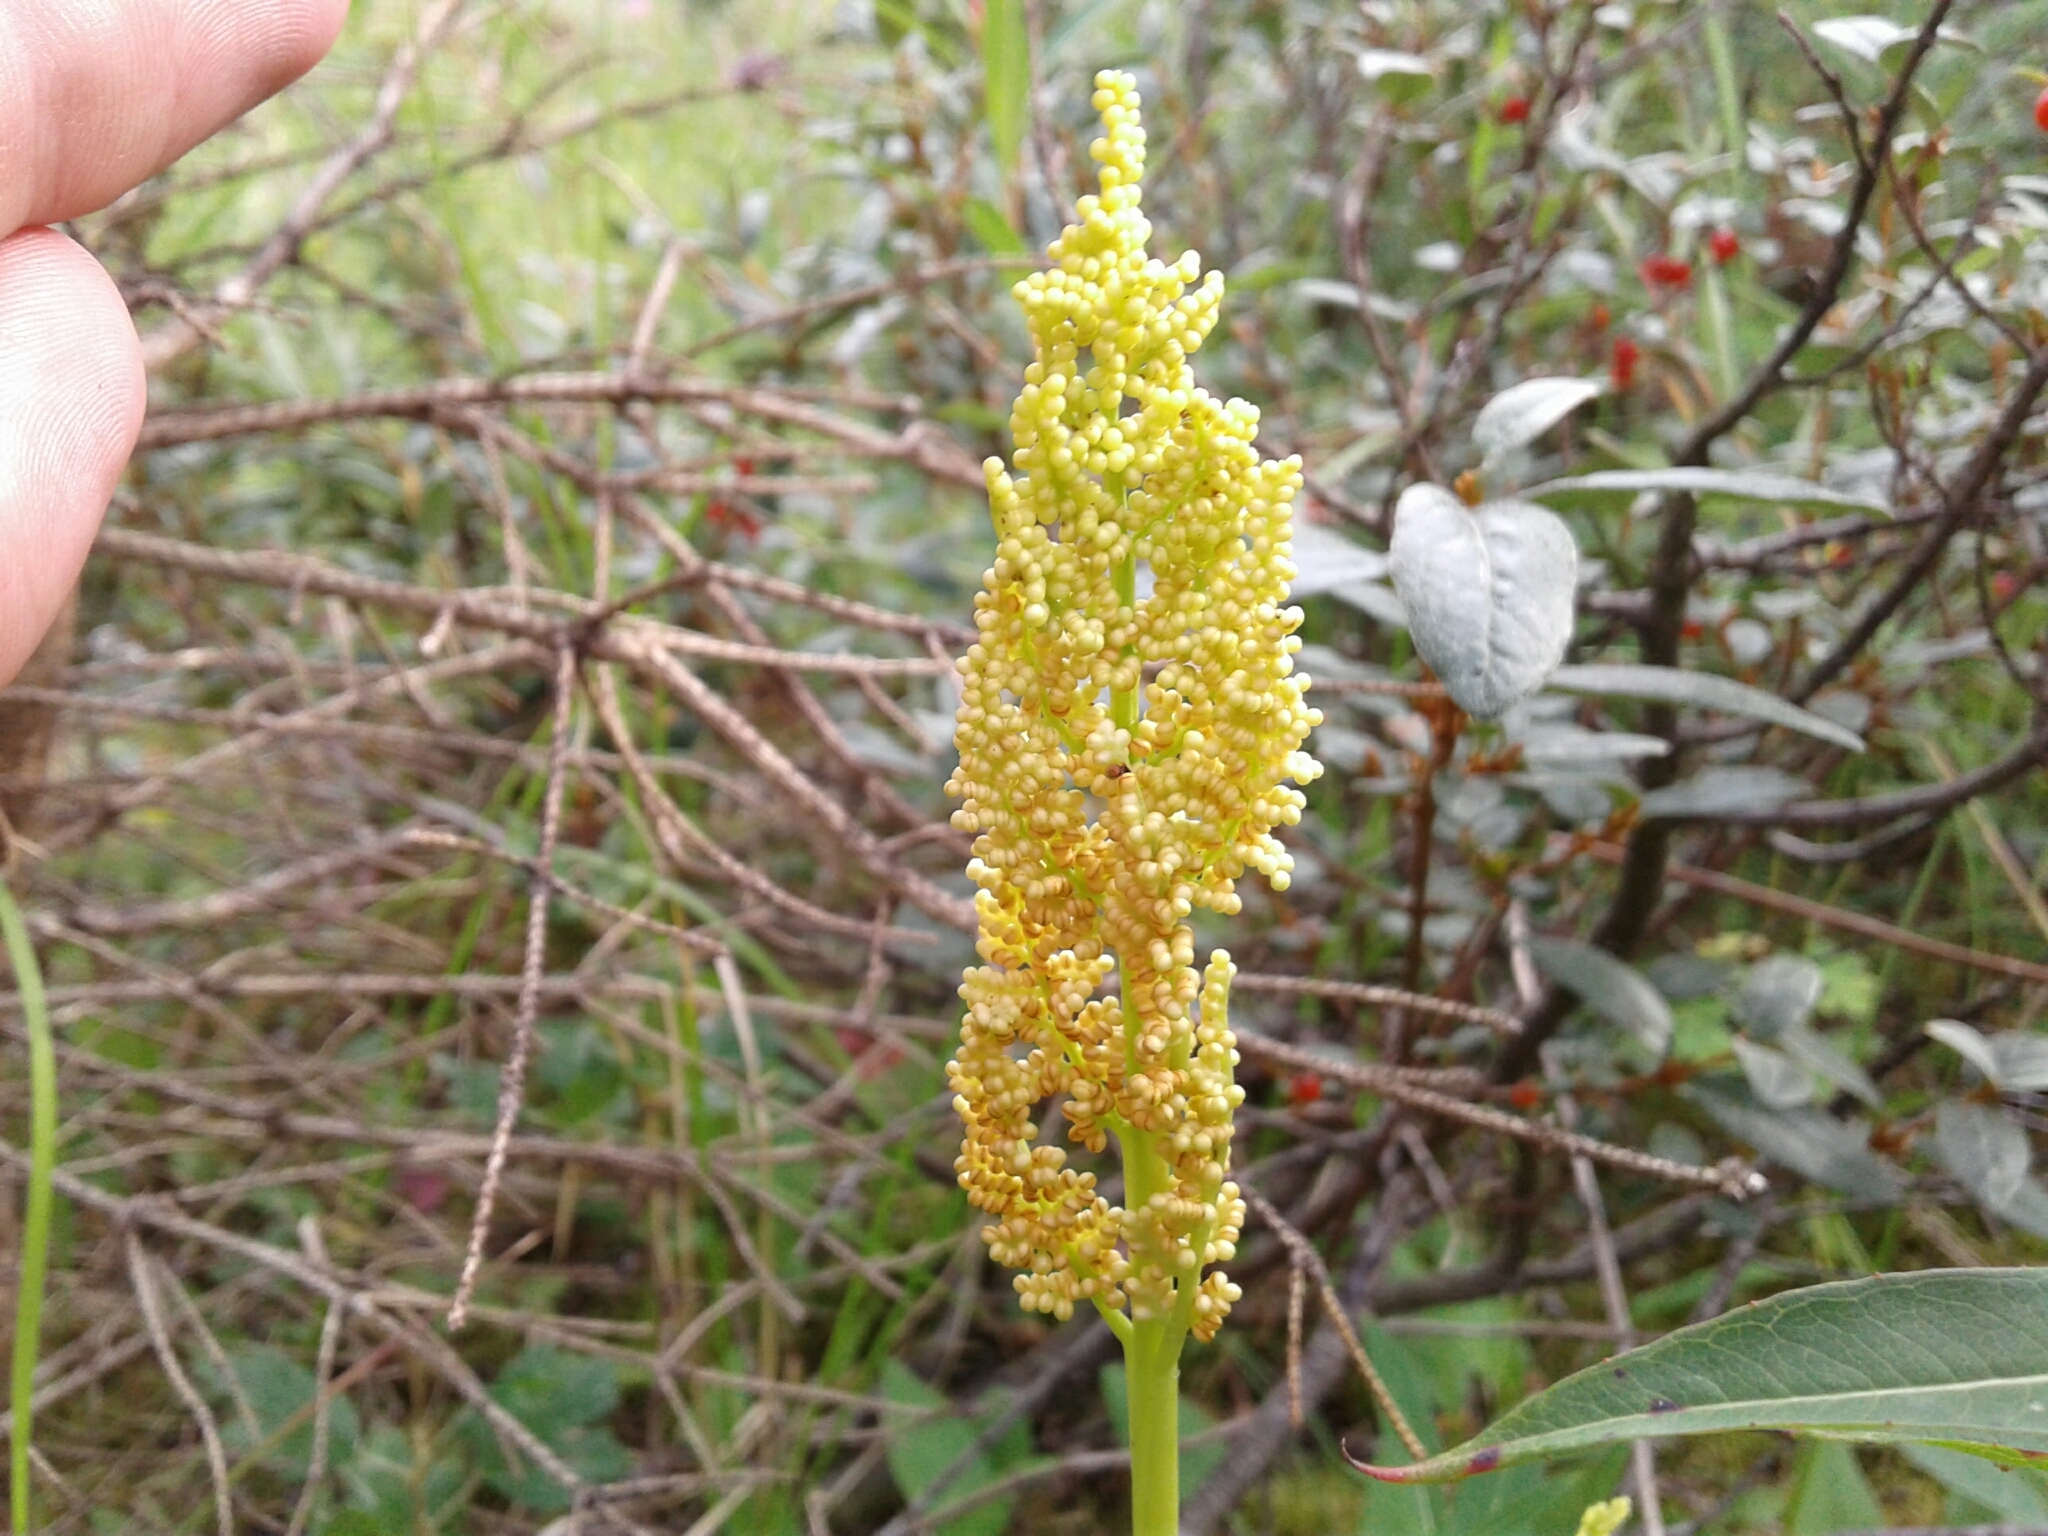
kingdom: Plantae
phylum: Tracheophyta
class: Polypodiopsida
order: Ophioglossales
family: Ophioglossaceae
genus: Botrypus
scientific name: Botrypus virginianus
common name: Common grapefern
